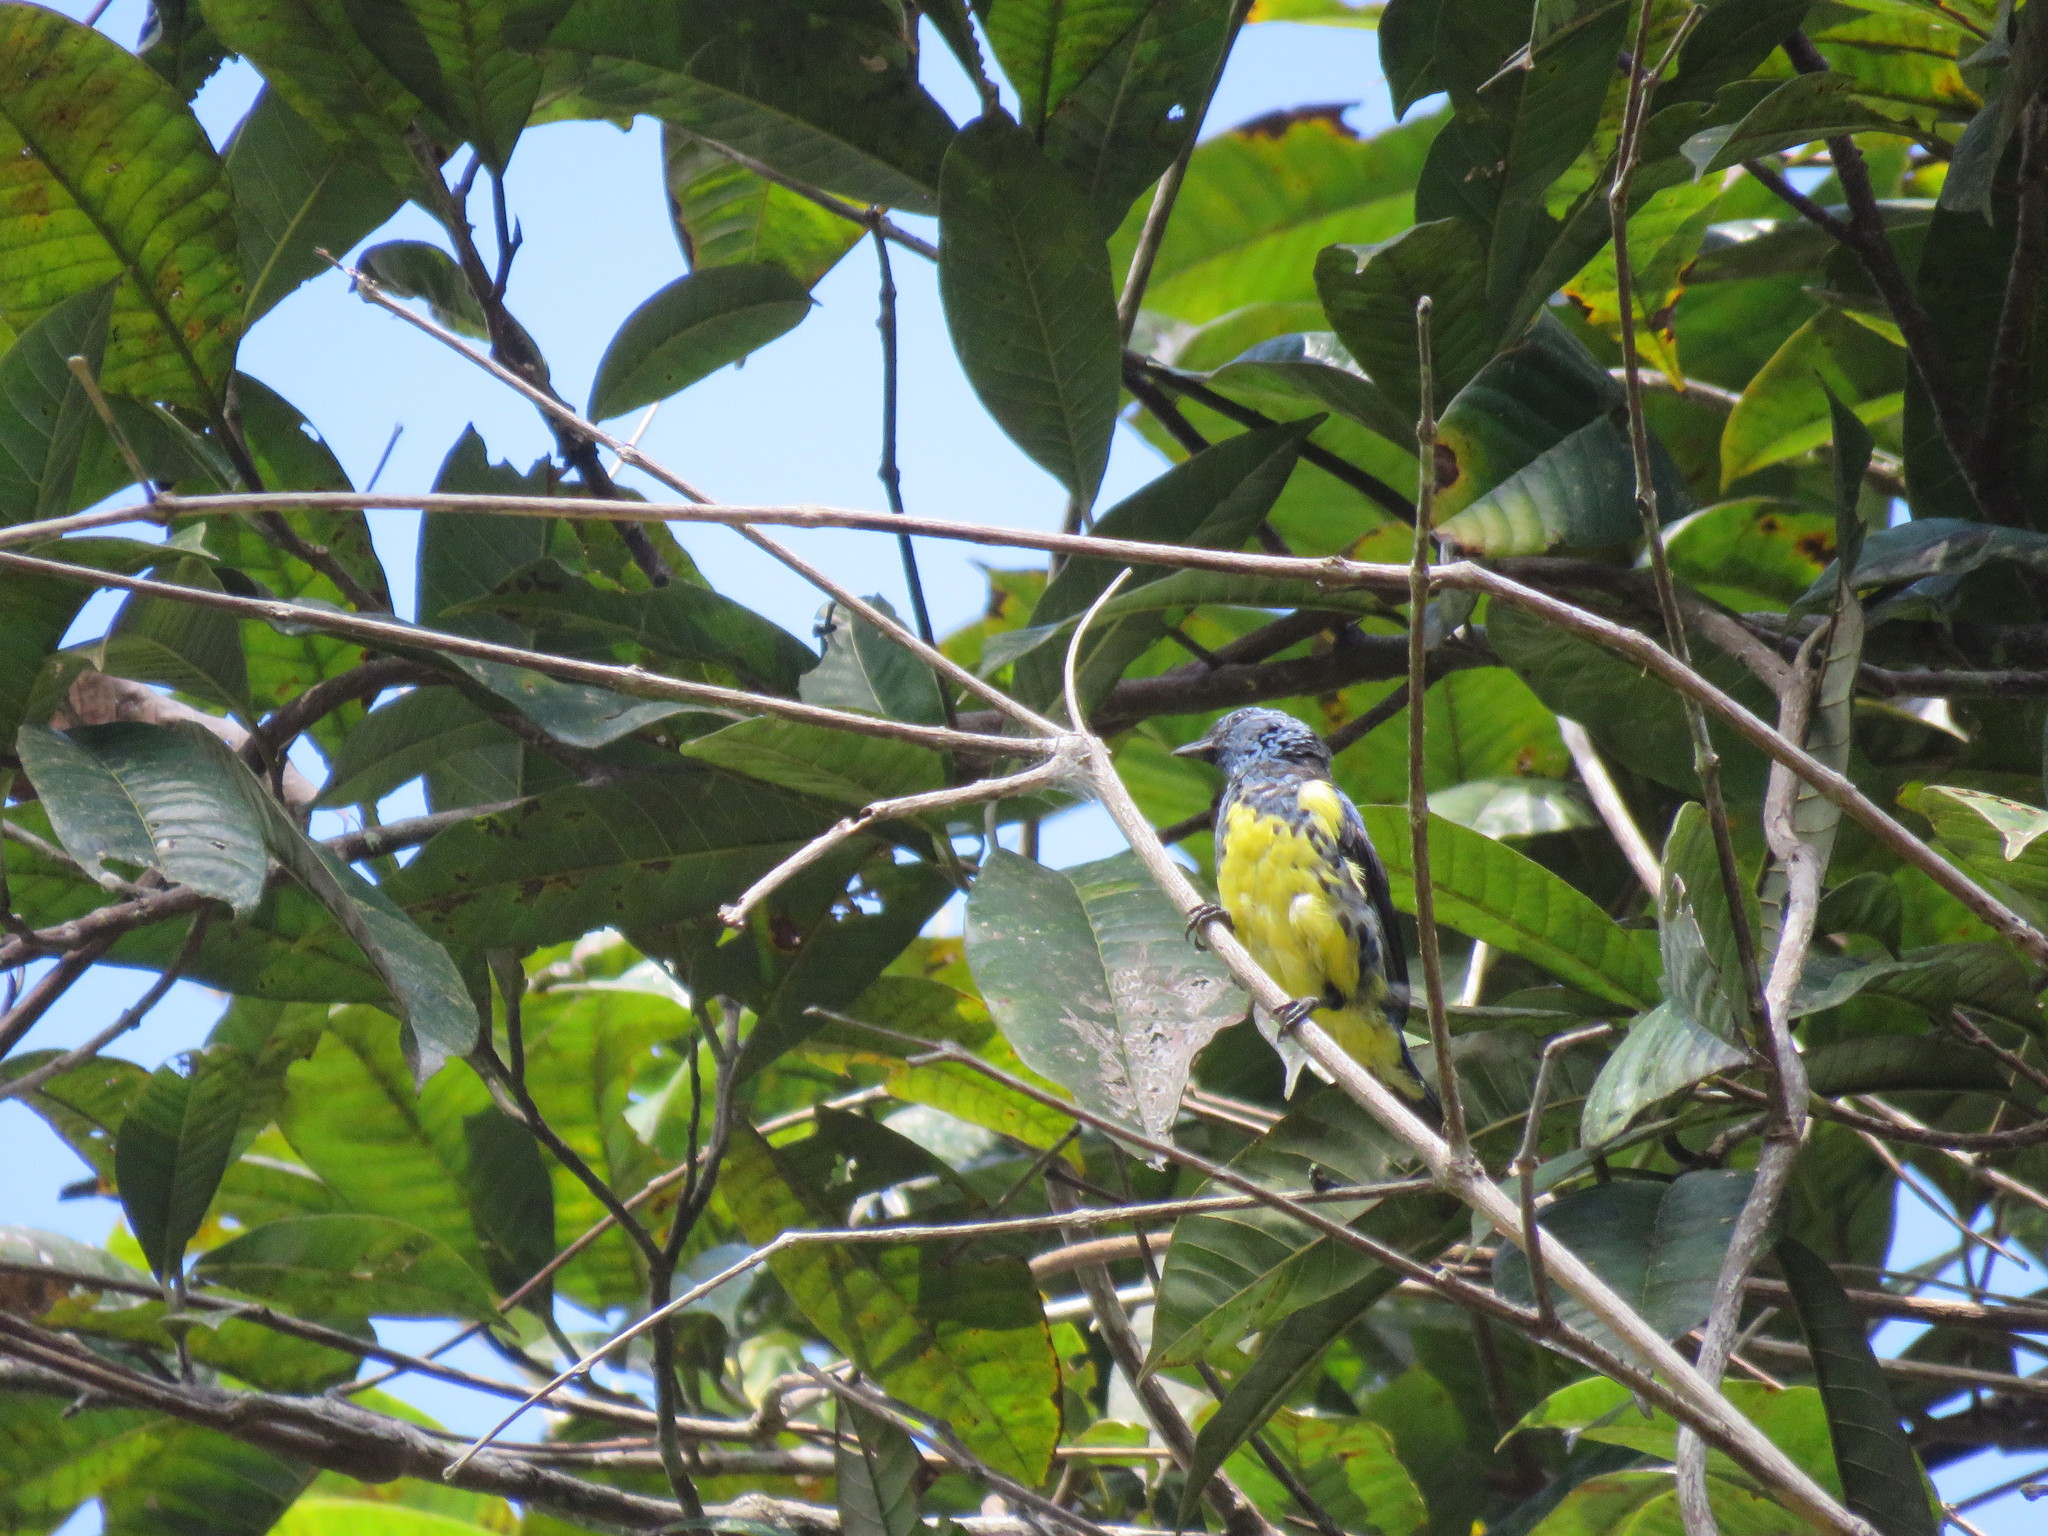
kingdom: Animalia
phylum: Chordata
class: Aves
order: Passeriformes
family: Thraupidae
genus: Tangara
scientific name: Tangara mexicana
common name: Turquoise tanager
